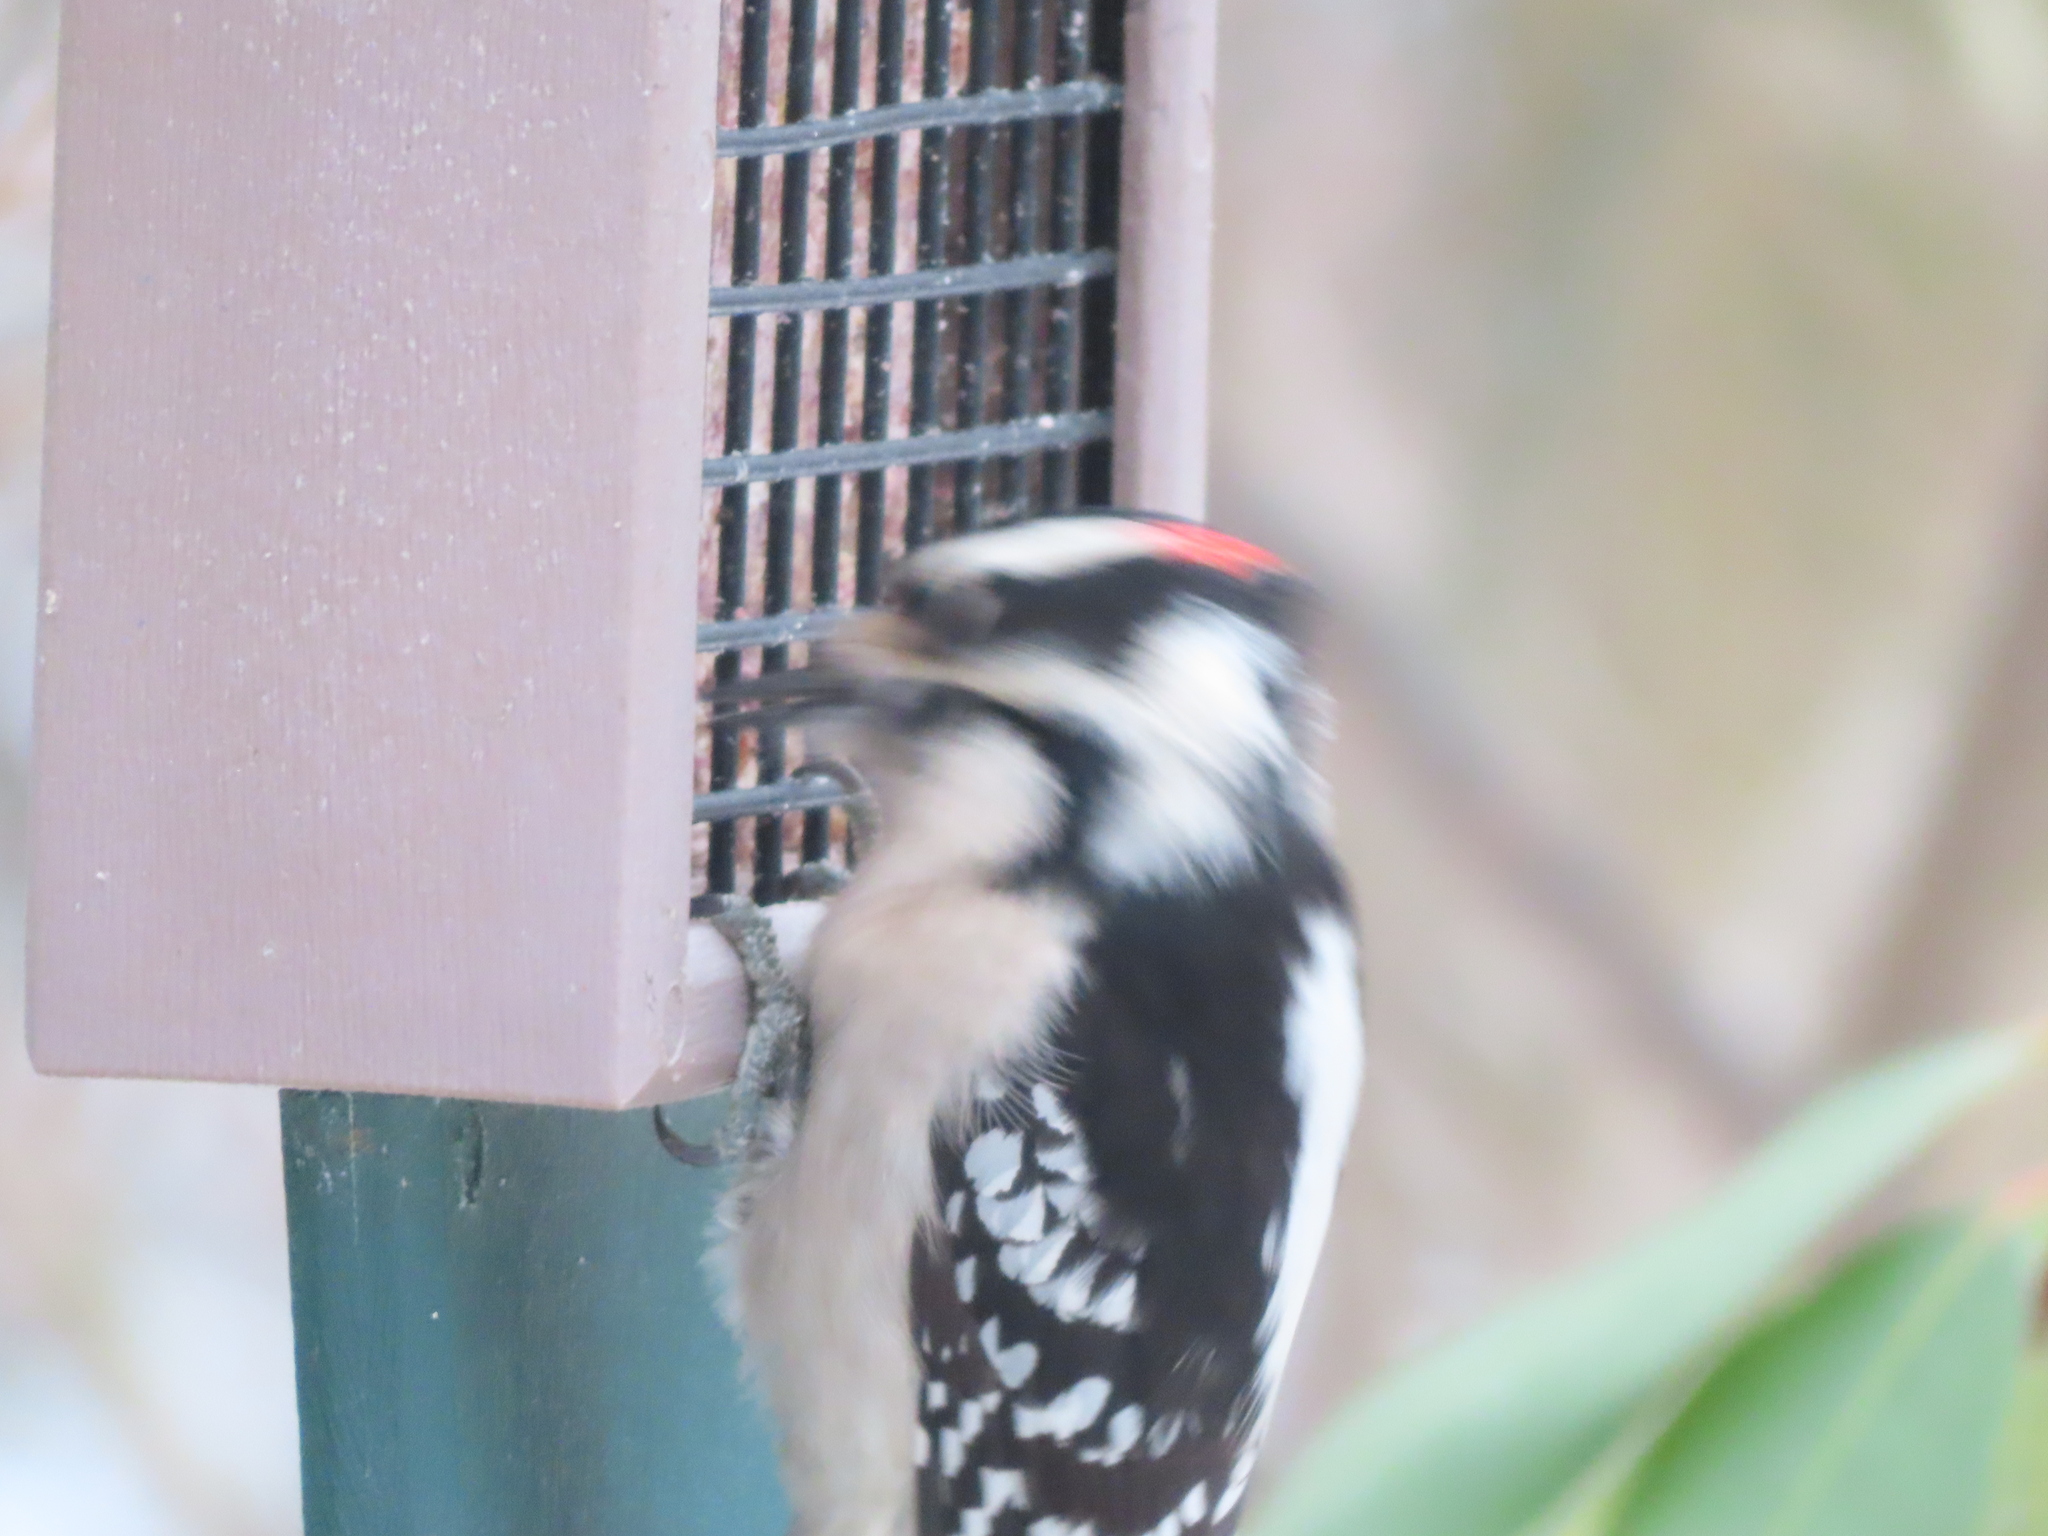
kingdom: Animalia
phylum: Chordata
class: Aves
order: Piciformes
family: Picidae
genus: Dryobates
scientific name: Dryobates pubescens
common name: Downy woodpecker
